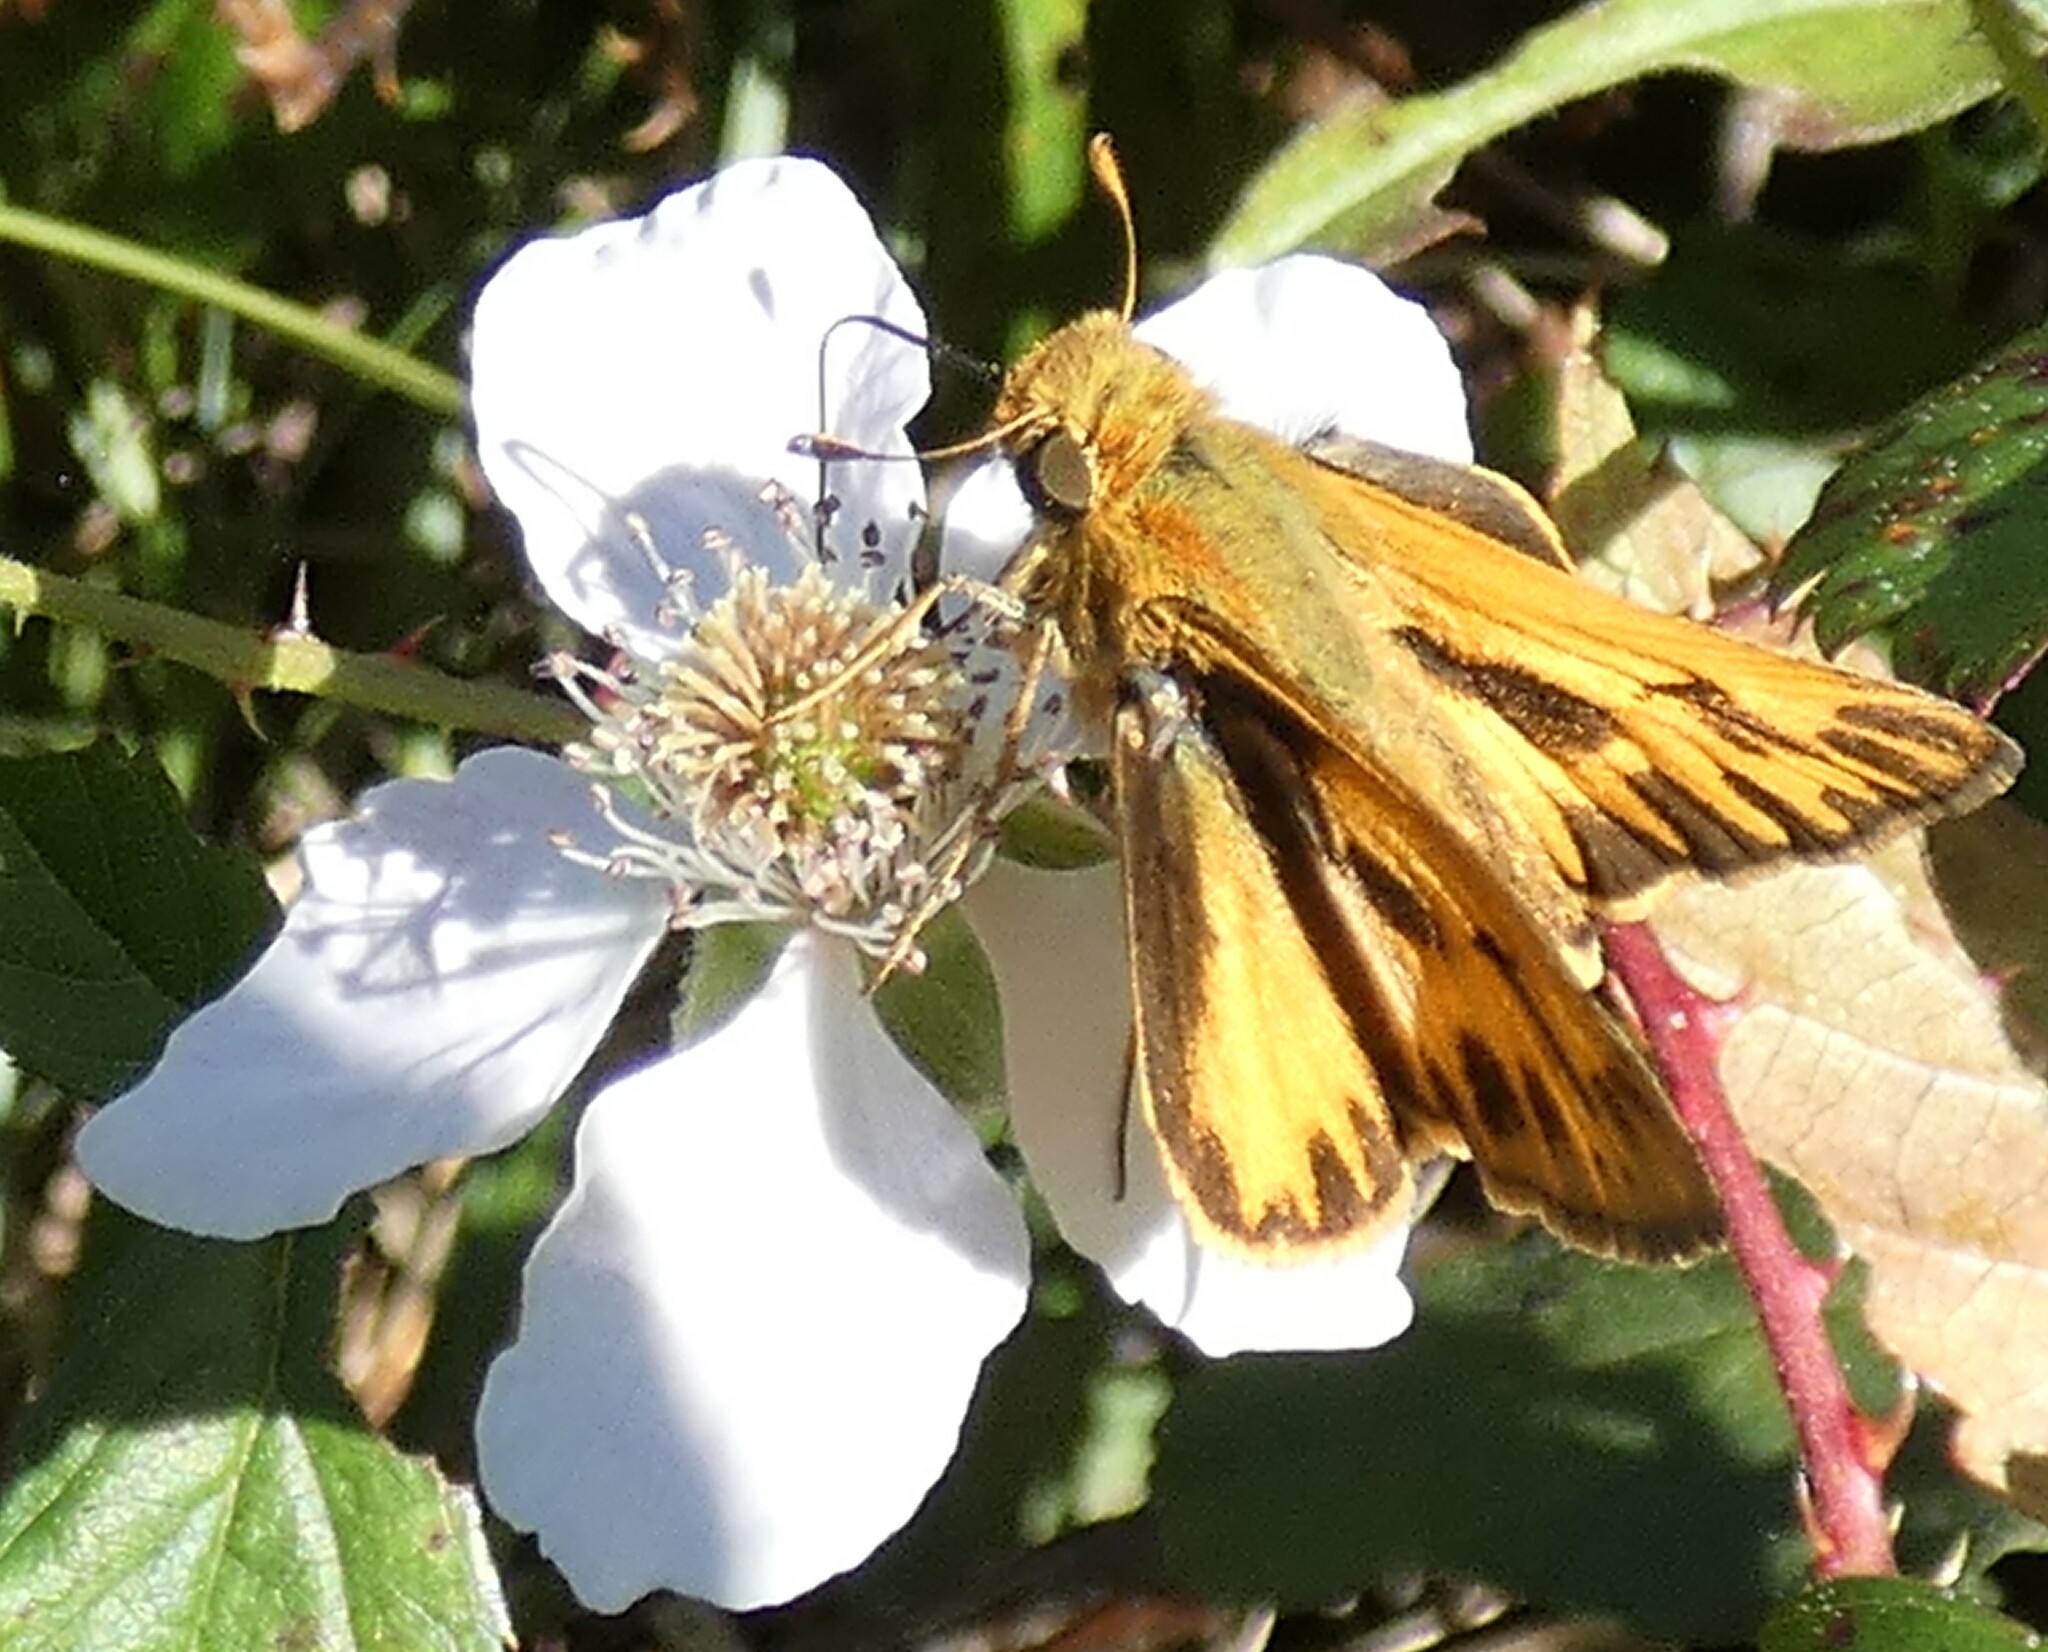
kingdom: Animalia
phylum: Arthropoda
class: Insecta
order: Lepidoptera
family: Hesperiidae
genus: Hylephila
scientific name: Hylephila phyleus
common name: Fiery skipper
